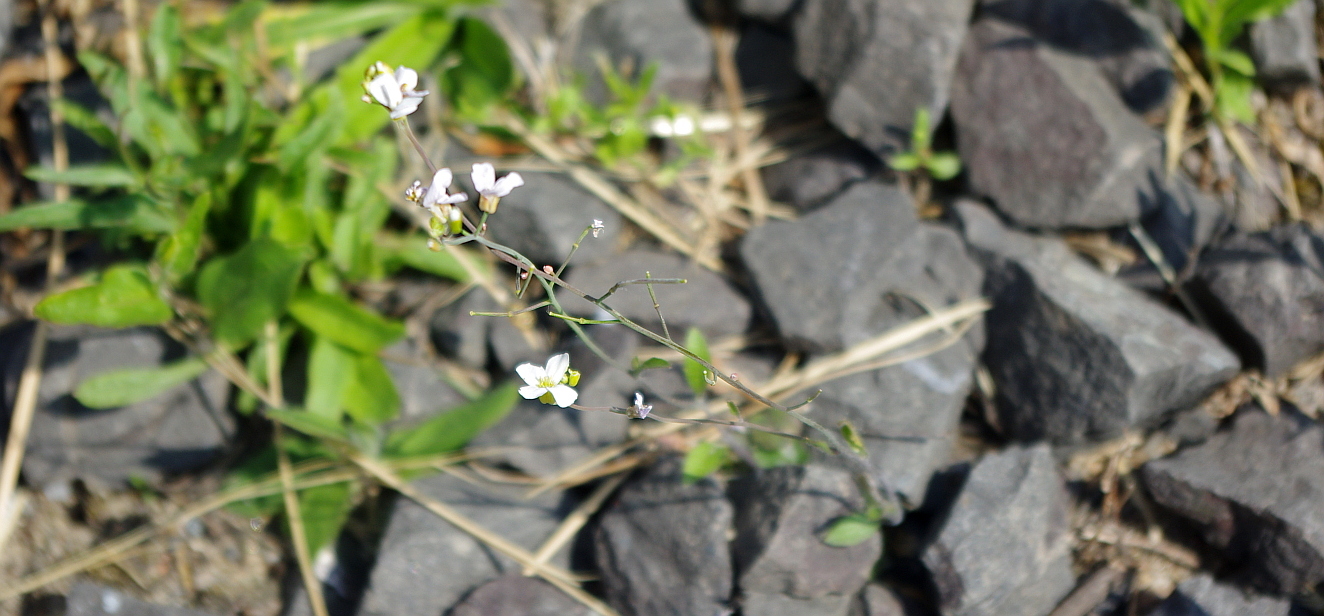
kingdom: Plantae
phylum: Tracheophyta
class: Magnoliopsida
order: Brassicales
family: Brassicaceae
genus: Arabidopsis
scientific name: Arabidopsis arenosa
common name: Sand rock-cress
